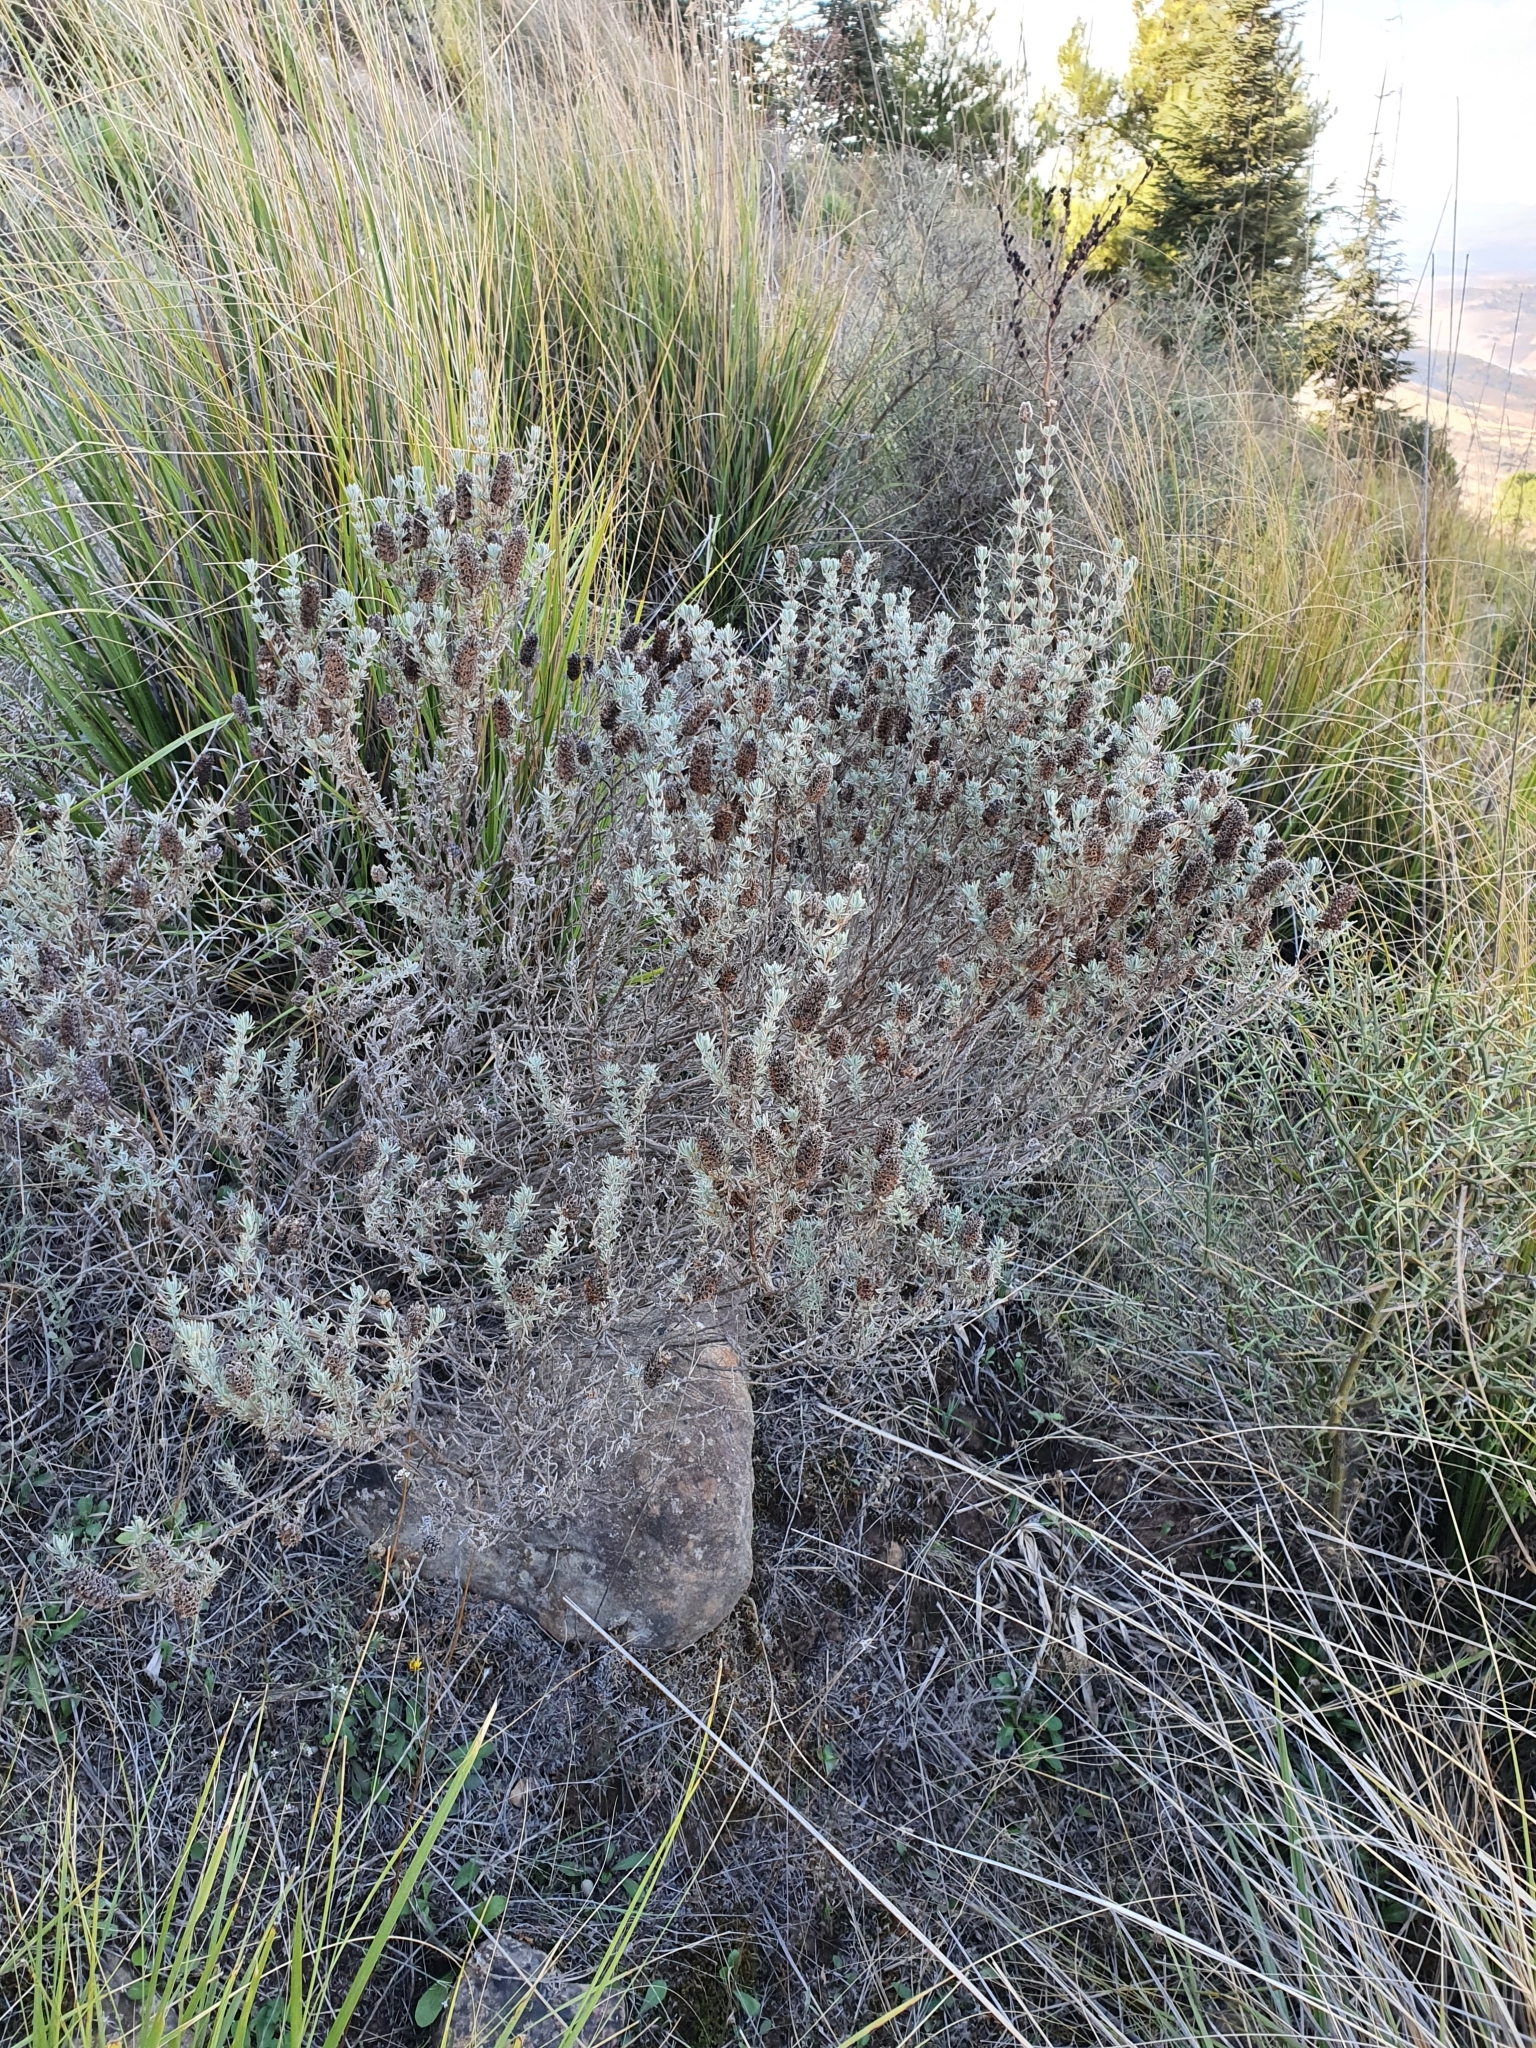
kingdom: Plantae
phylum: Tracheophyta
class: Magnoliopsida
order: Lamiales
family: Lamiaceae
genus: Lavandula
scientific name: Lavandula stoechas
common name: French lavender
